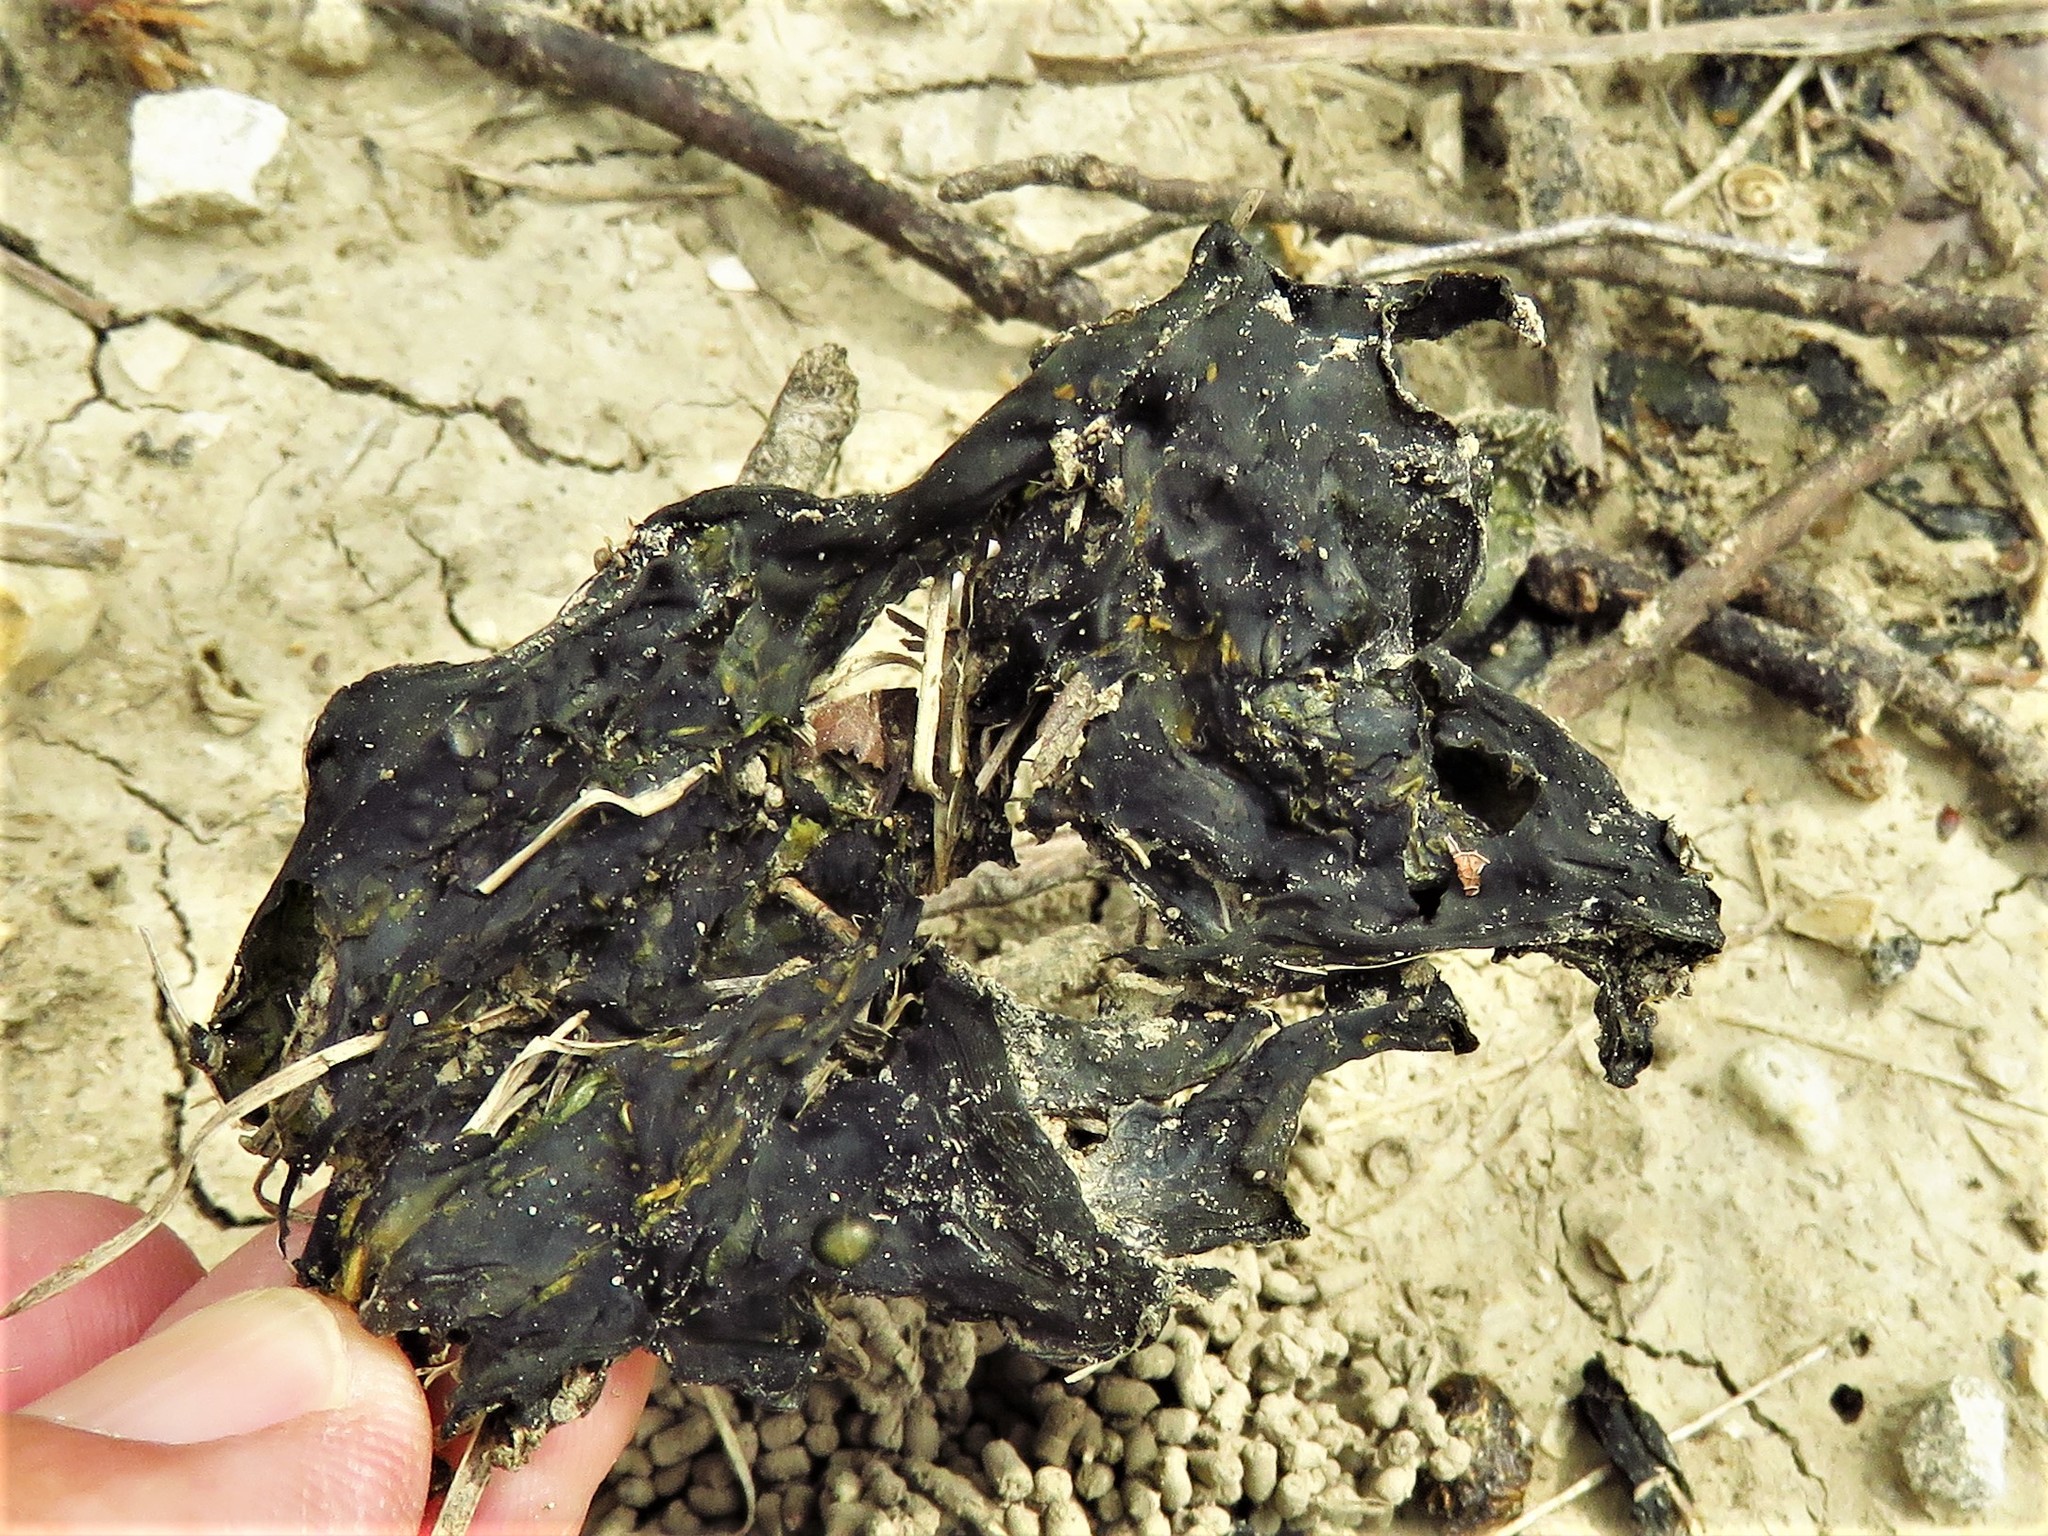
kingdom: Bacteria
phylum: Cyanobacteria
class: Cyanobacteriia
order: Cyanobacteriales
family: Nostocaceae
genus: Nostoc
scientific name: Nostoc commune
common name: Star jelly
